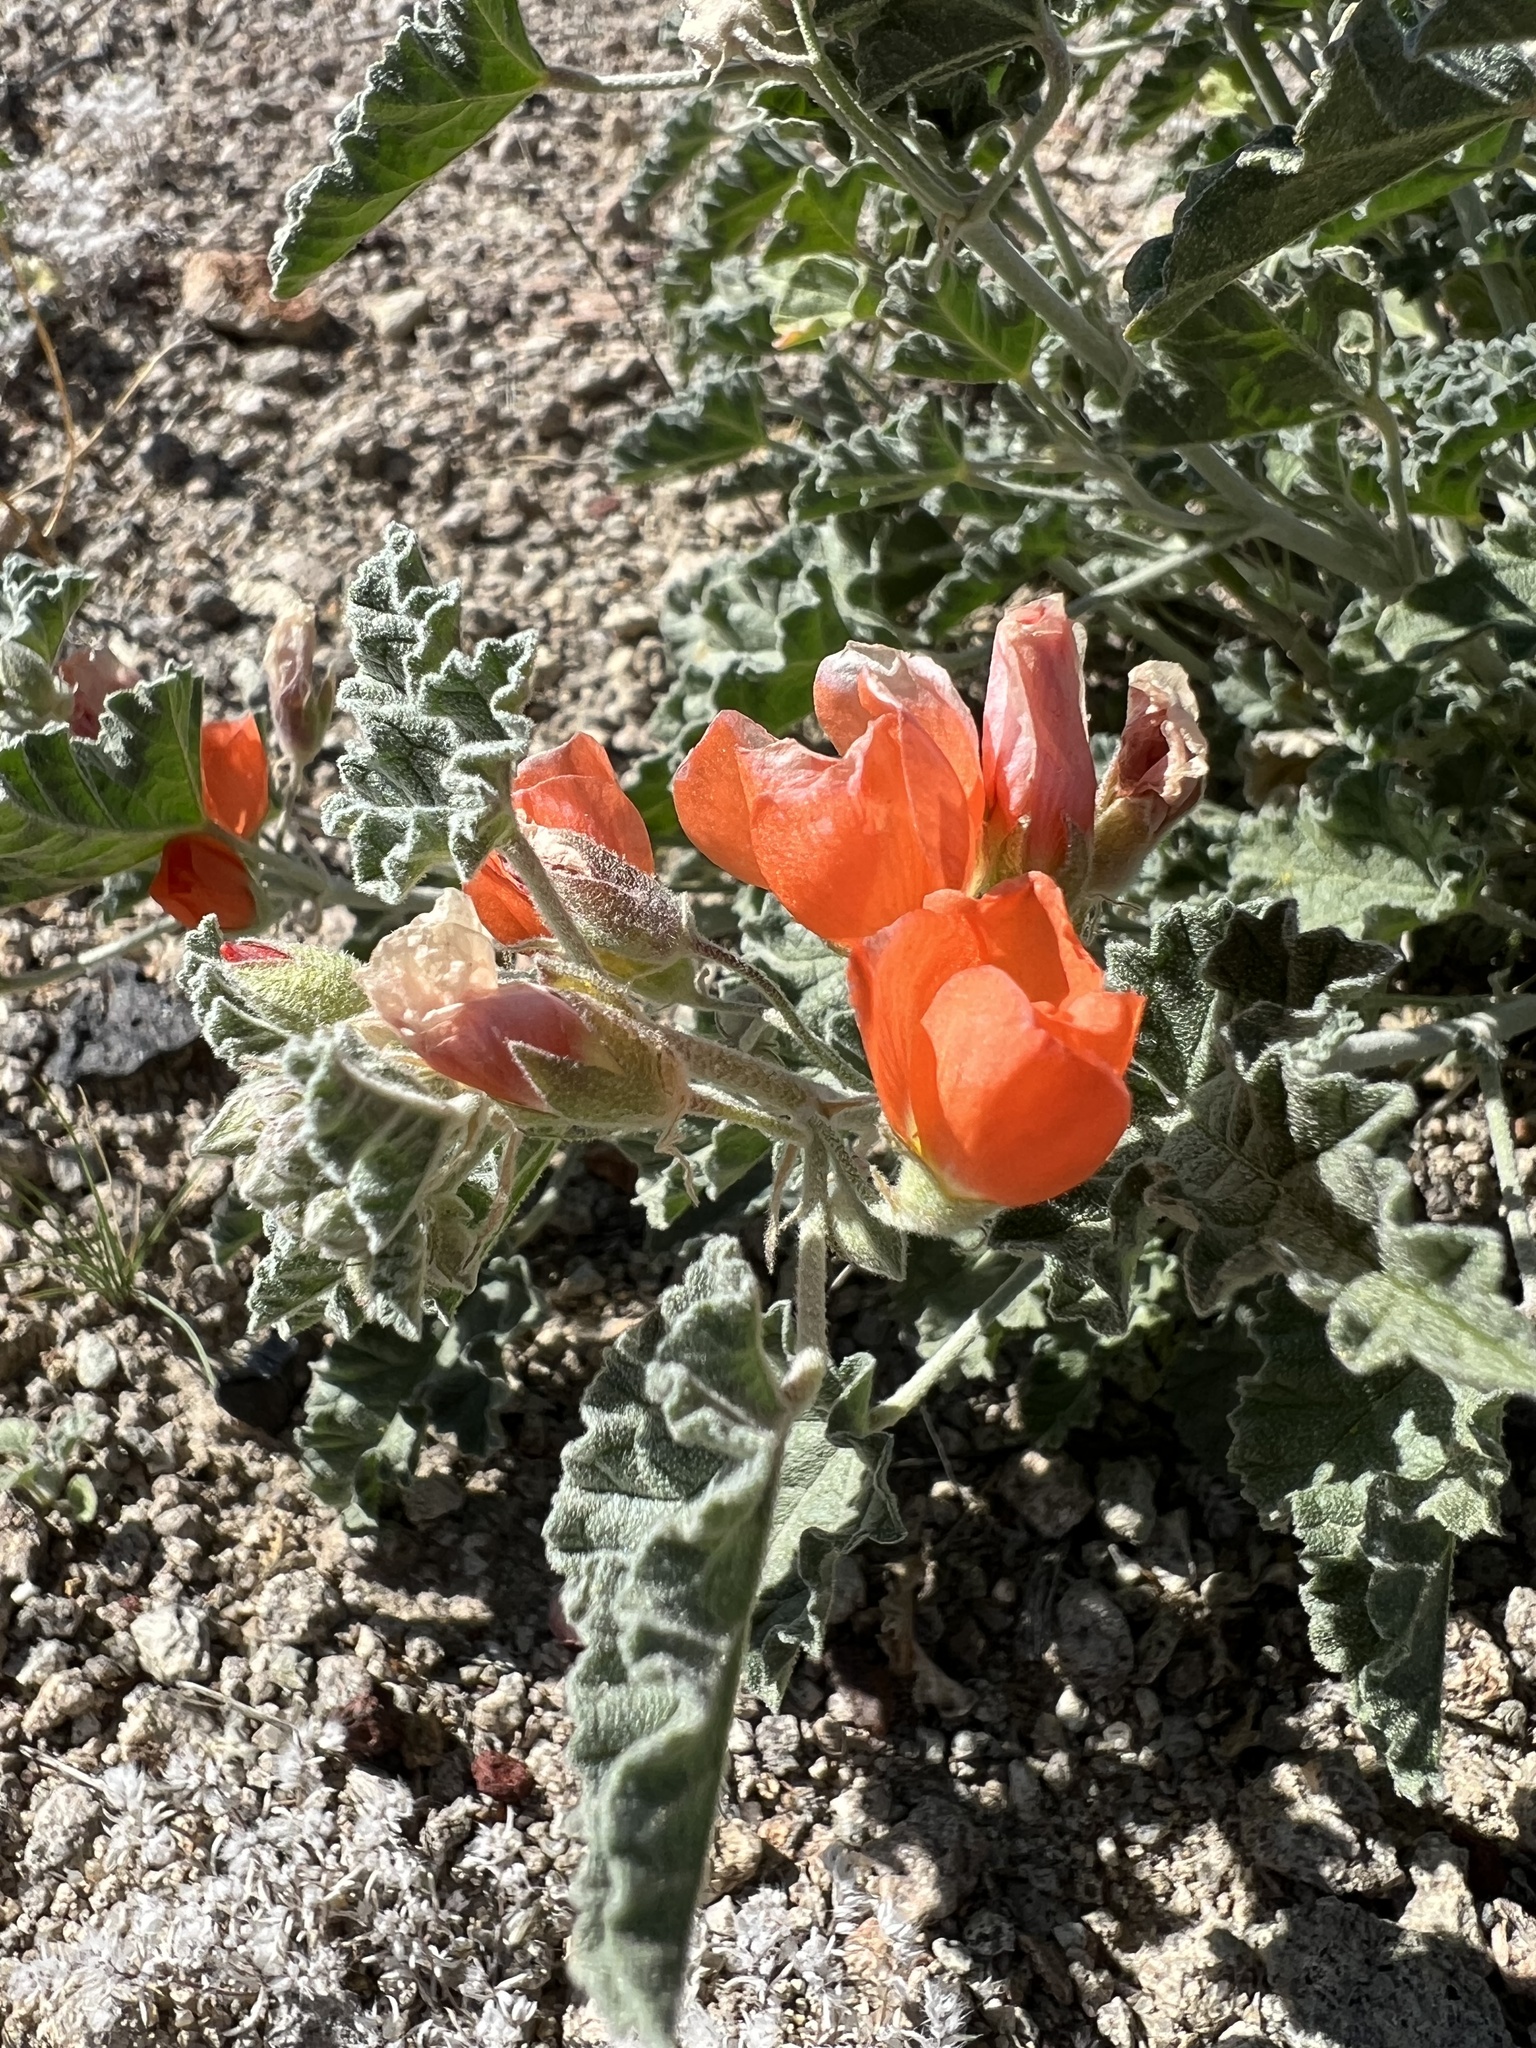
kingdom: Plantae
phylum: Tracheophyta
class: Magnoliopsida
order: Malvales
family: Malvaceae
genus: Sphaeralcea
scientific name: Sphaeralcea ambigua
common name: Apricot globe-mallow
